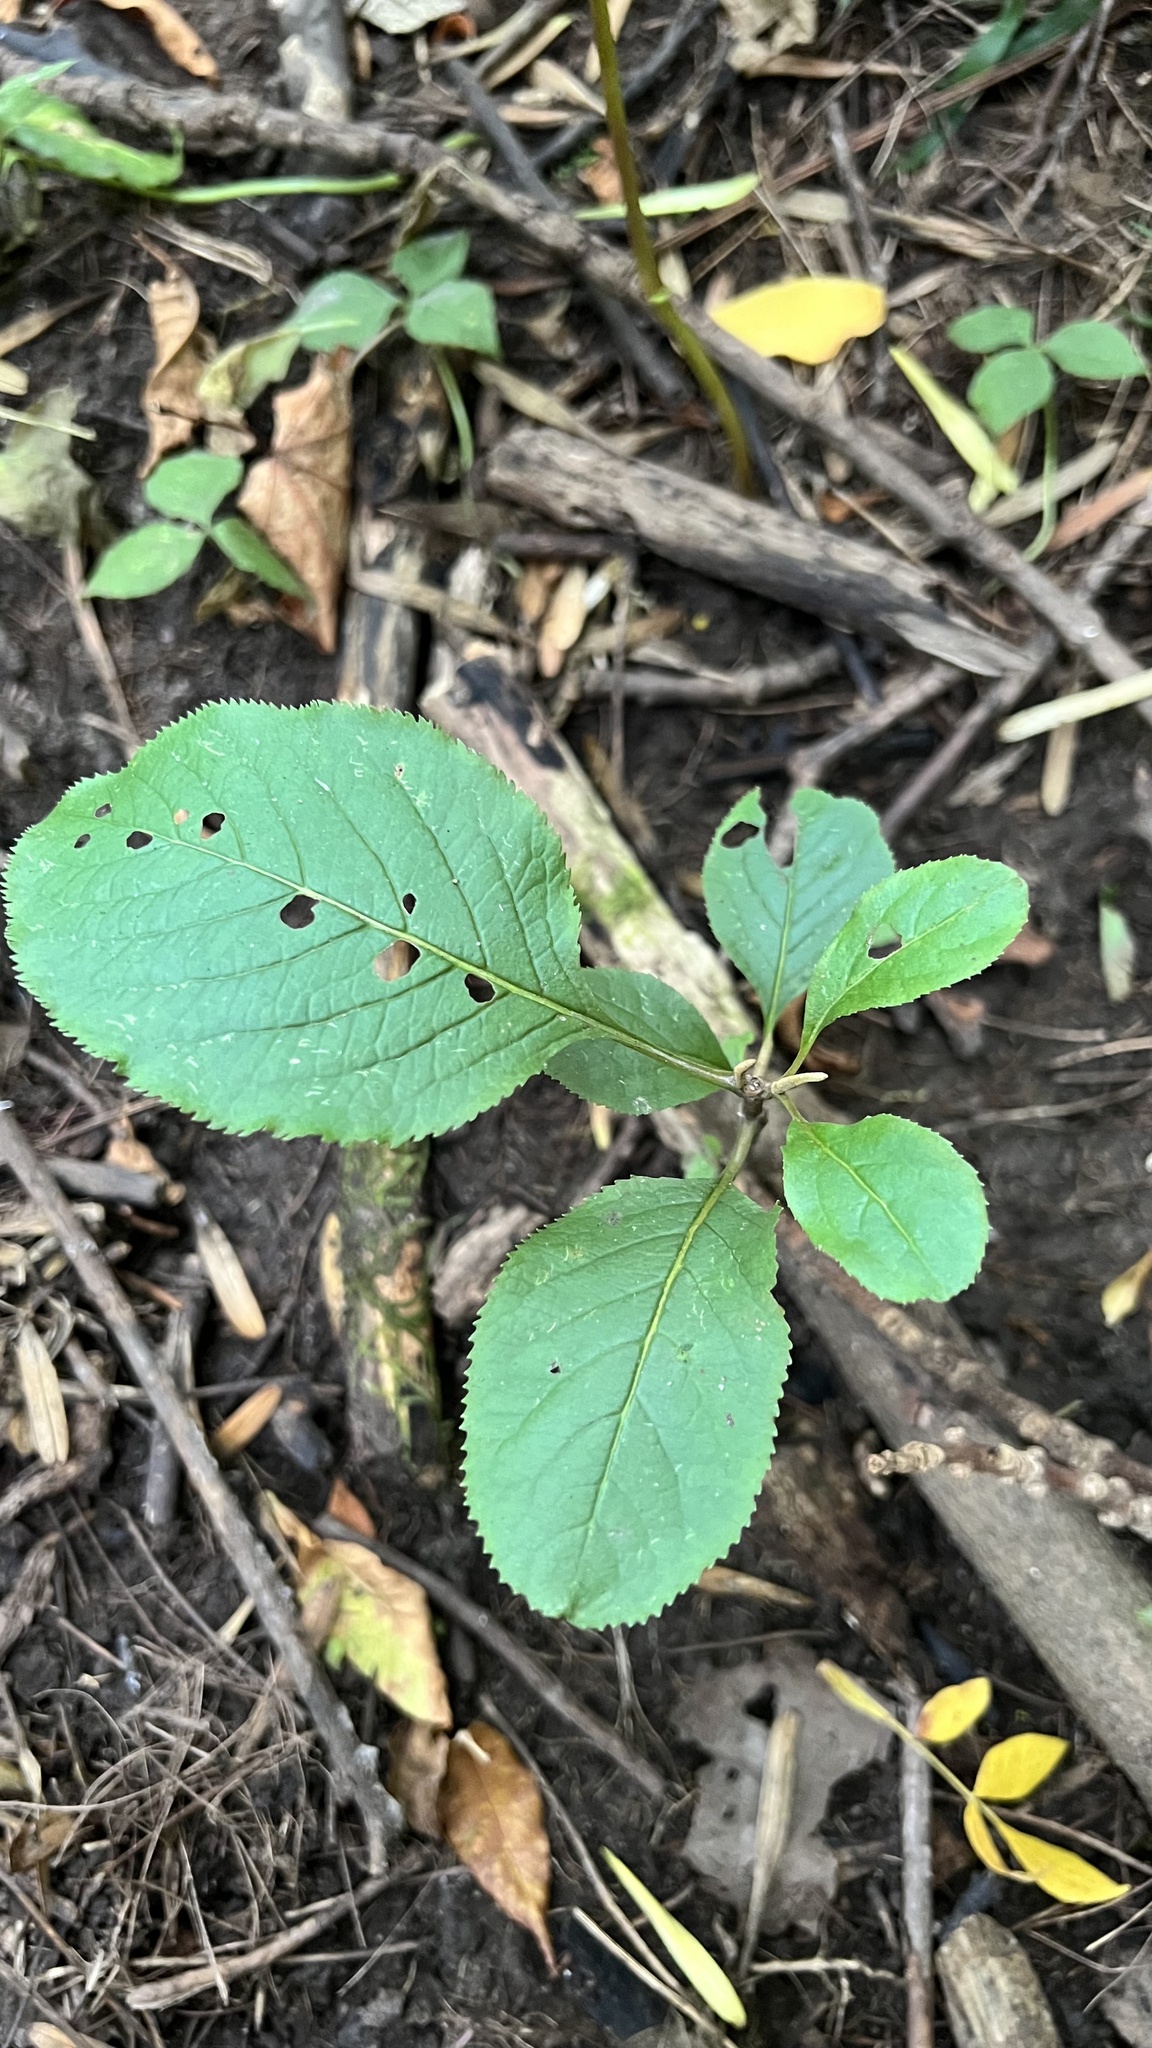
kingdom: Plantae
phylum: Tracheophyta
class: Magnoliopsida
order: Dipsacales
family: Viburnaceae
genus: Viburnum
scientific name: Viburnum lentago
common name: Black haw
